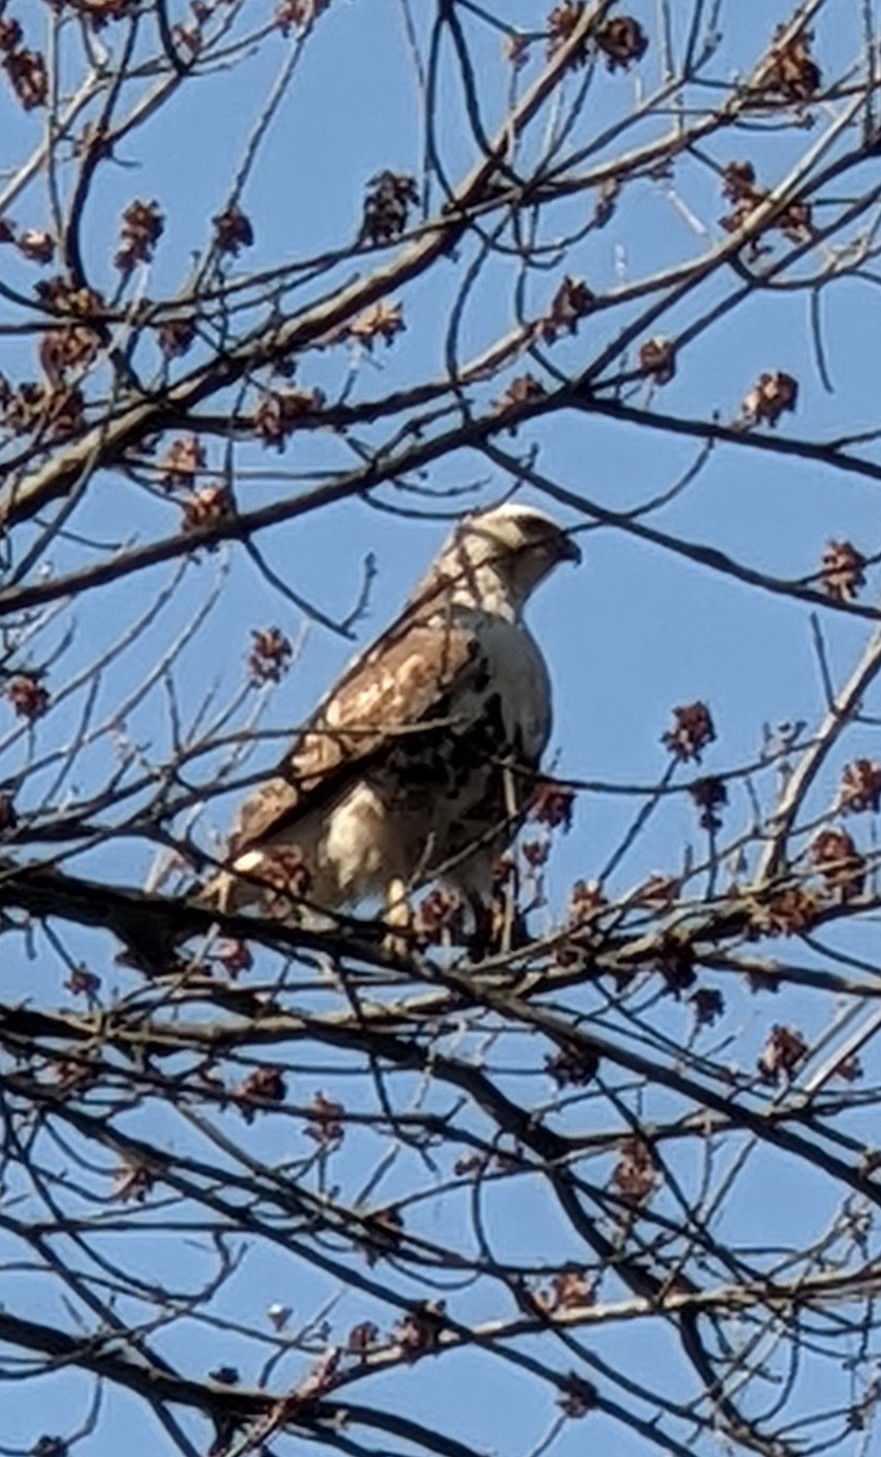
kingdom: Animalia
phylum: Chordata
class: Aves
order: Accipitriformes
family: Accipitridae
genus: Buteo
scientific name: Buteo jamaicensis
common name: Red-tailed hawk
